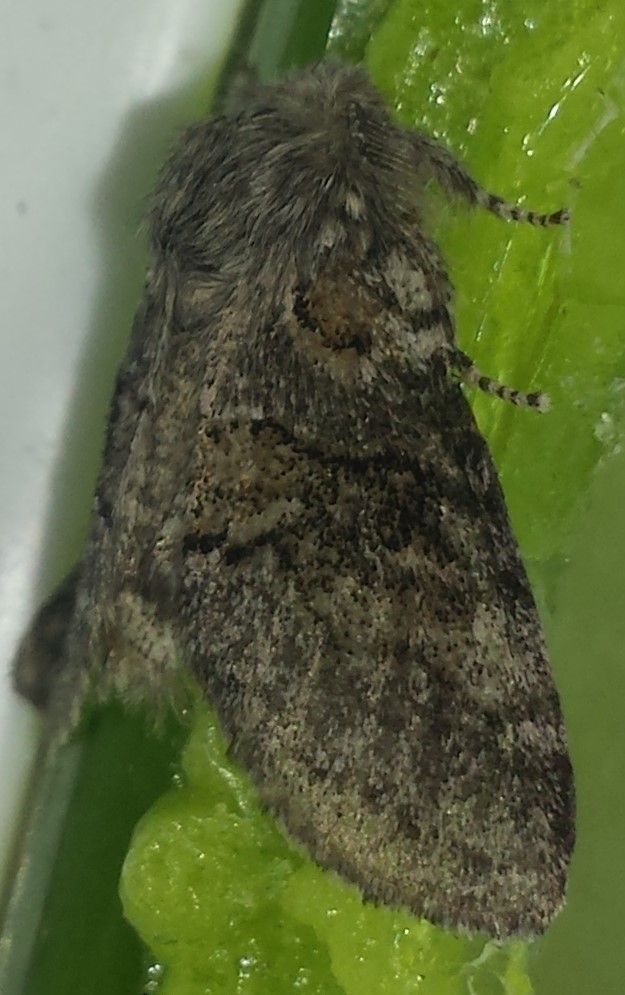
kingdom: Animalia
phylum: Arthropoda
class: Insecta
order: Lepidoptera
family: Notodontidae
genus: Gluphisia
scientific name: Gluphisia septentrionis
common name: Common gluphisia
